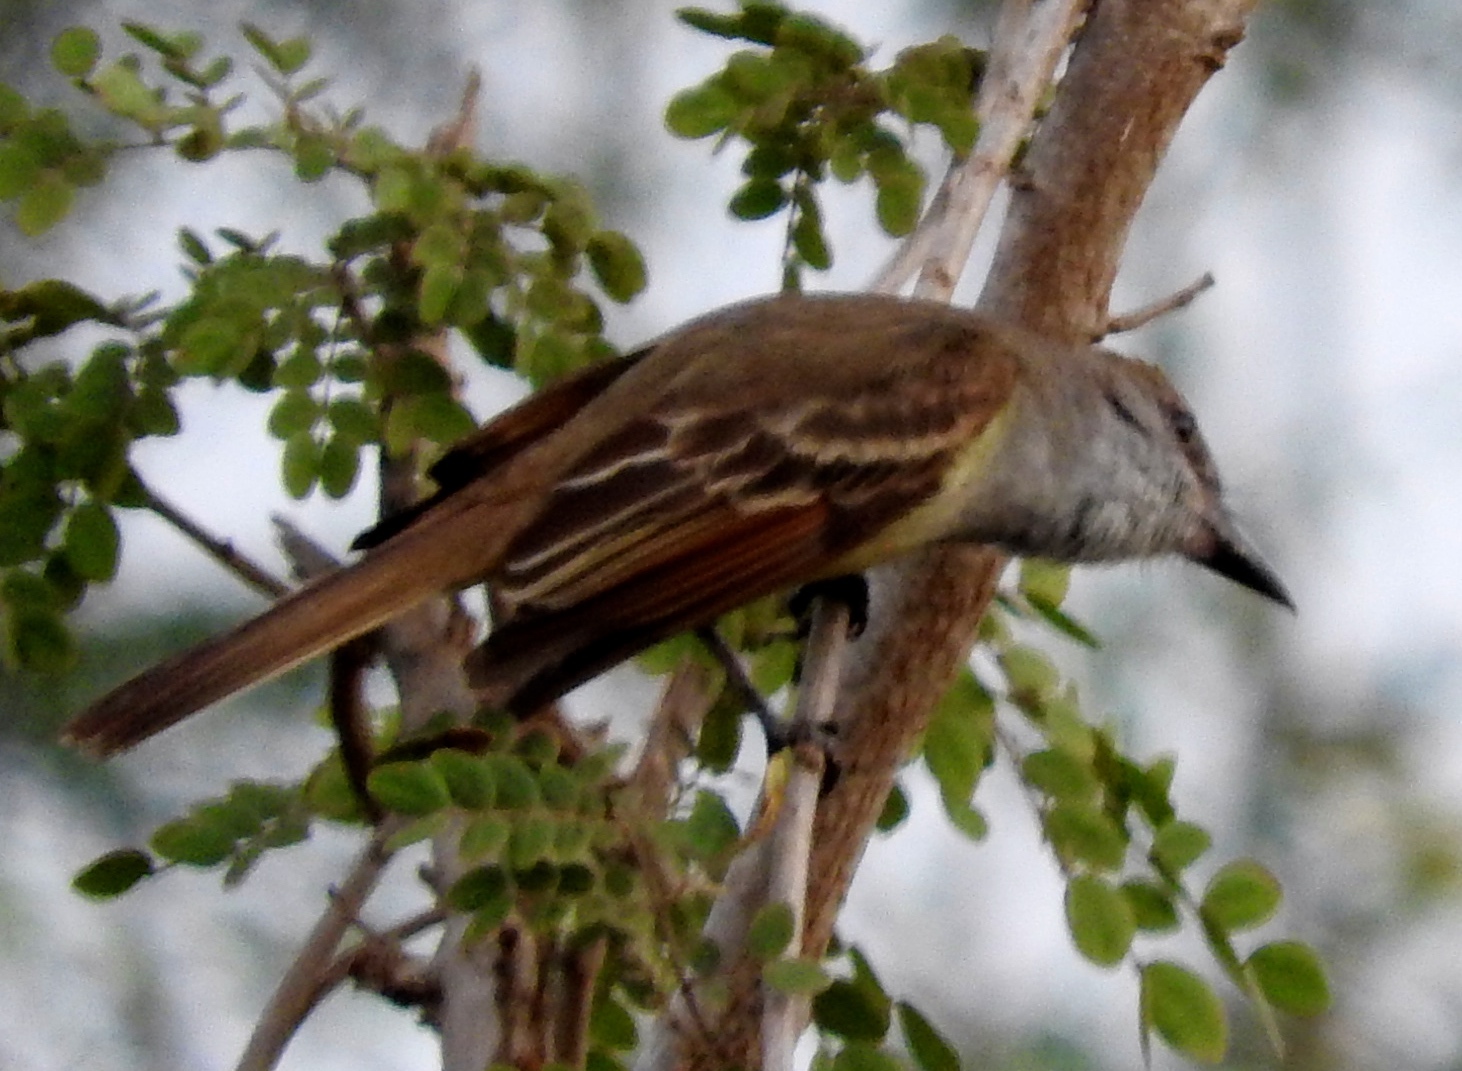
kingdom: Animalia
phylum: Chordata
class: Aves
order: Passeriformes
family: Tyrannidae
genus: Myiarchus
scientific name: Myiarchus
